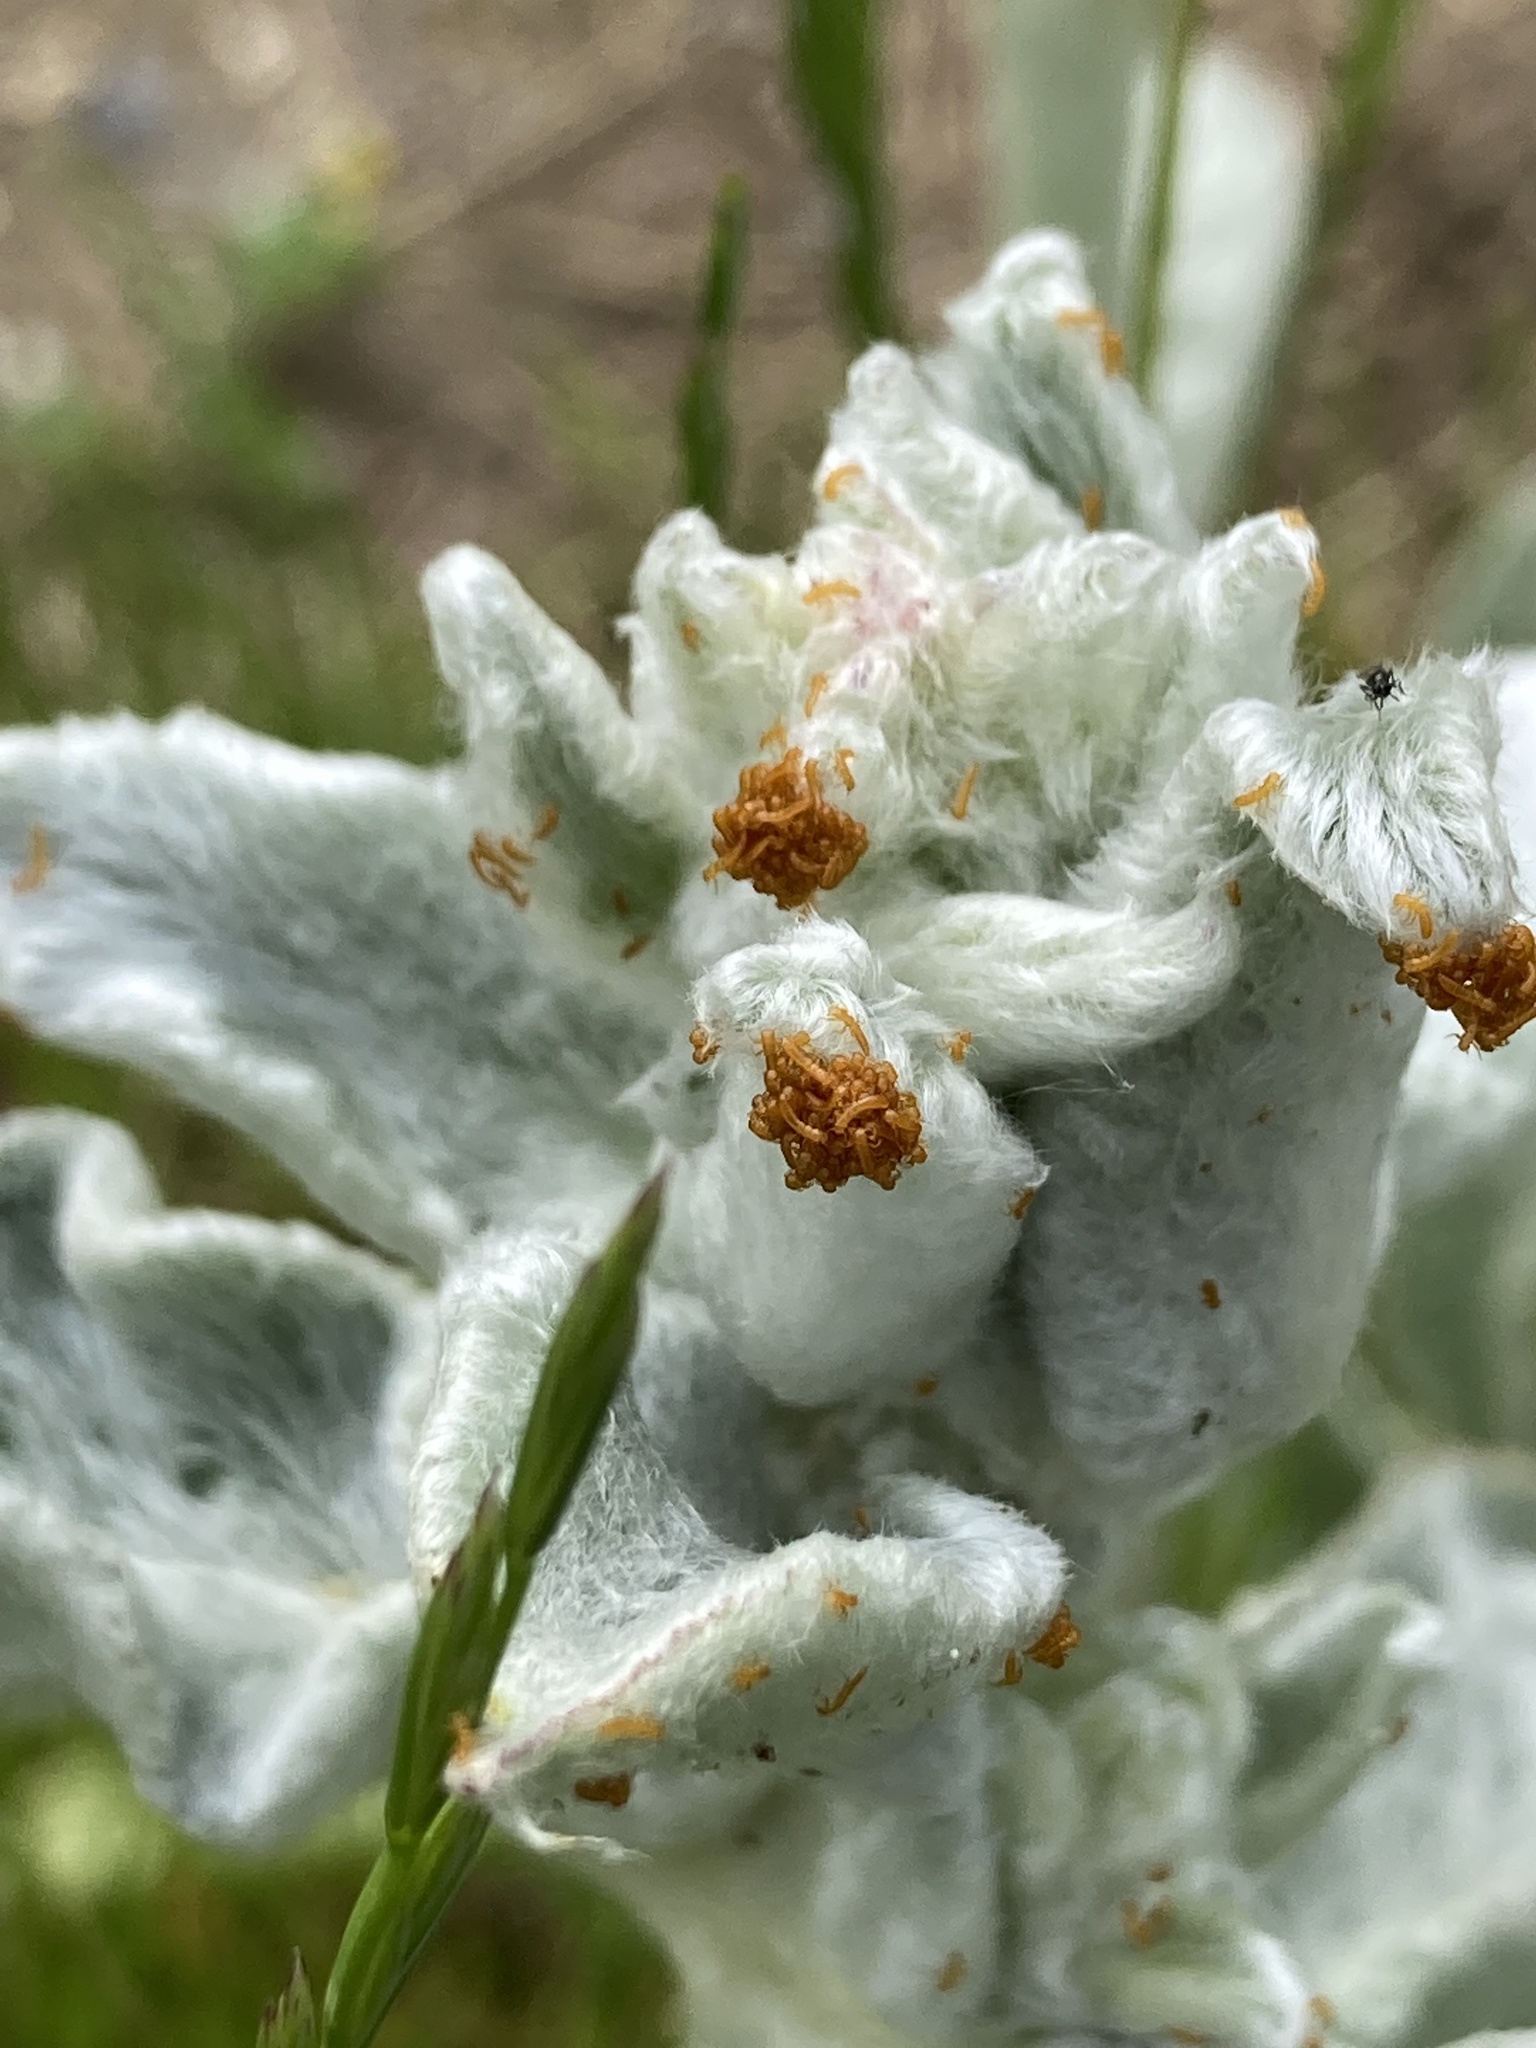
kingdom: Animalia
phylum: Arthropoda
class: Insecta
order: Coleoptera
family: Meloidae
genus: Meloe
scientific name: Meloe proscarabaeus
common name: Black oil-beetle
